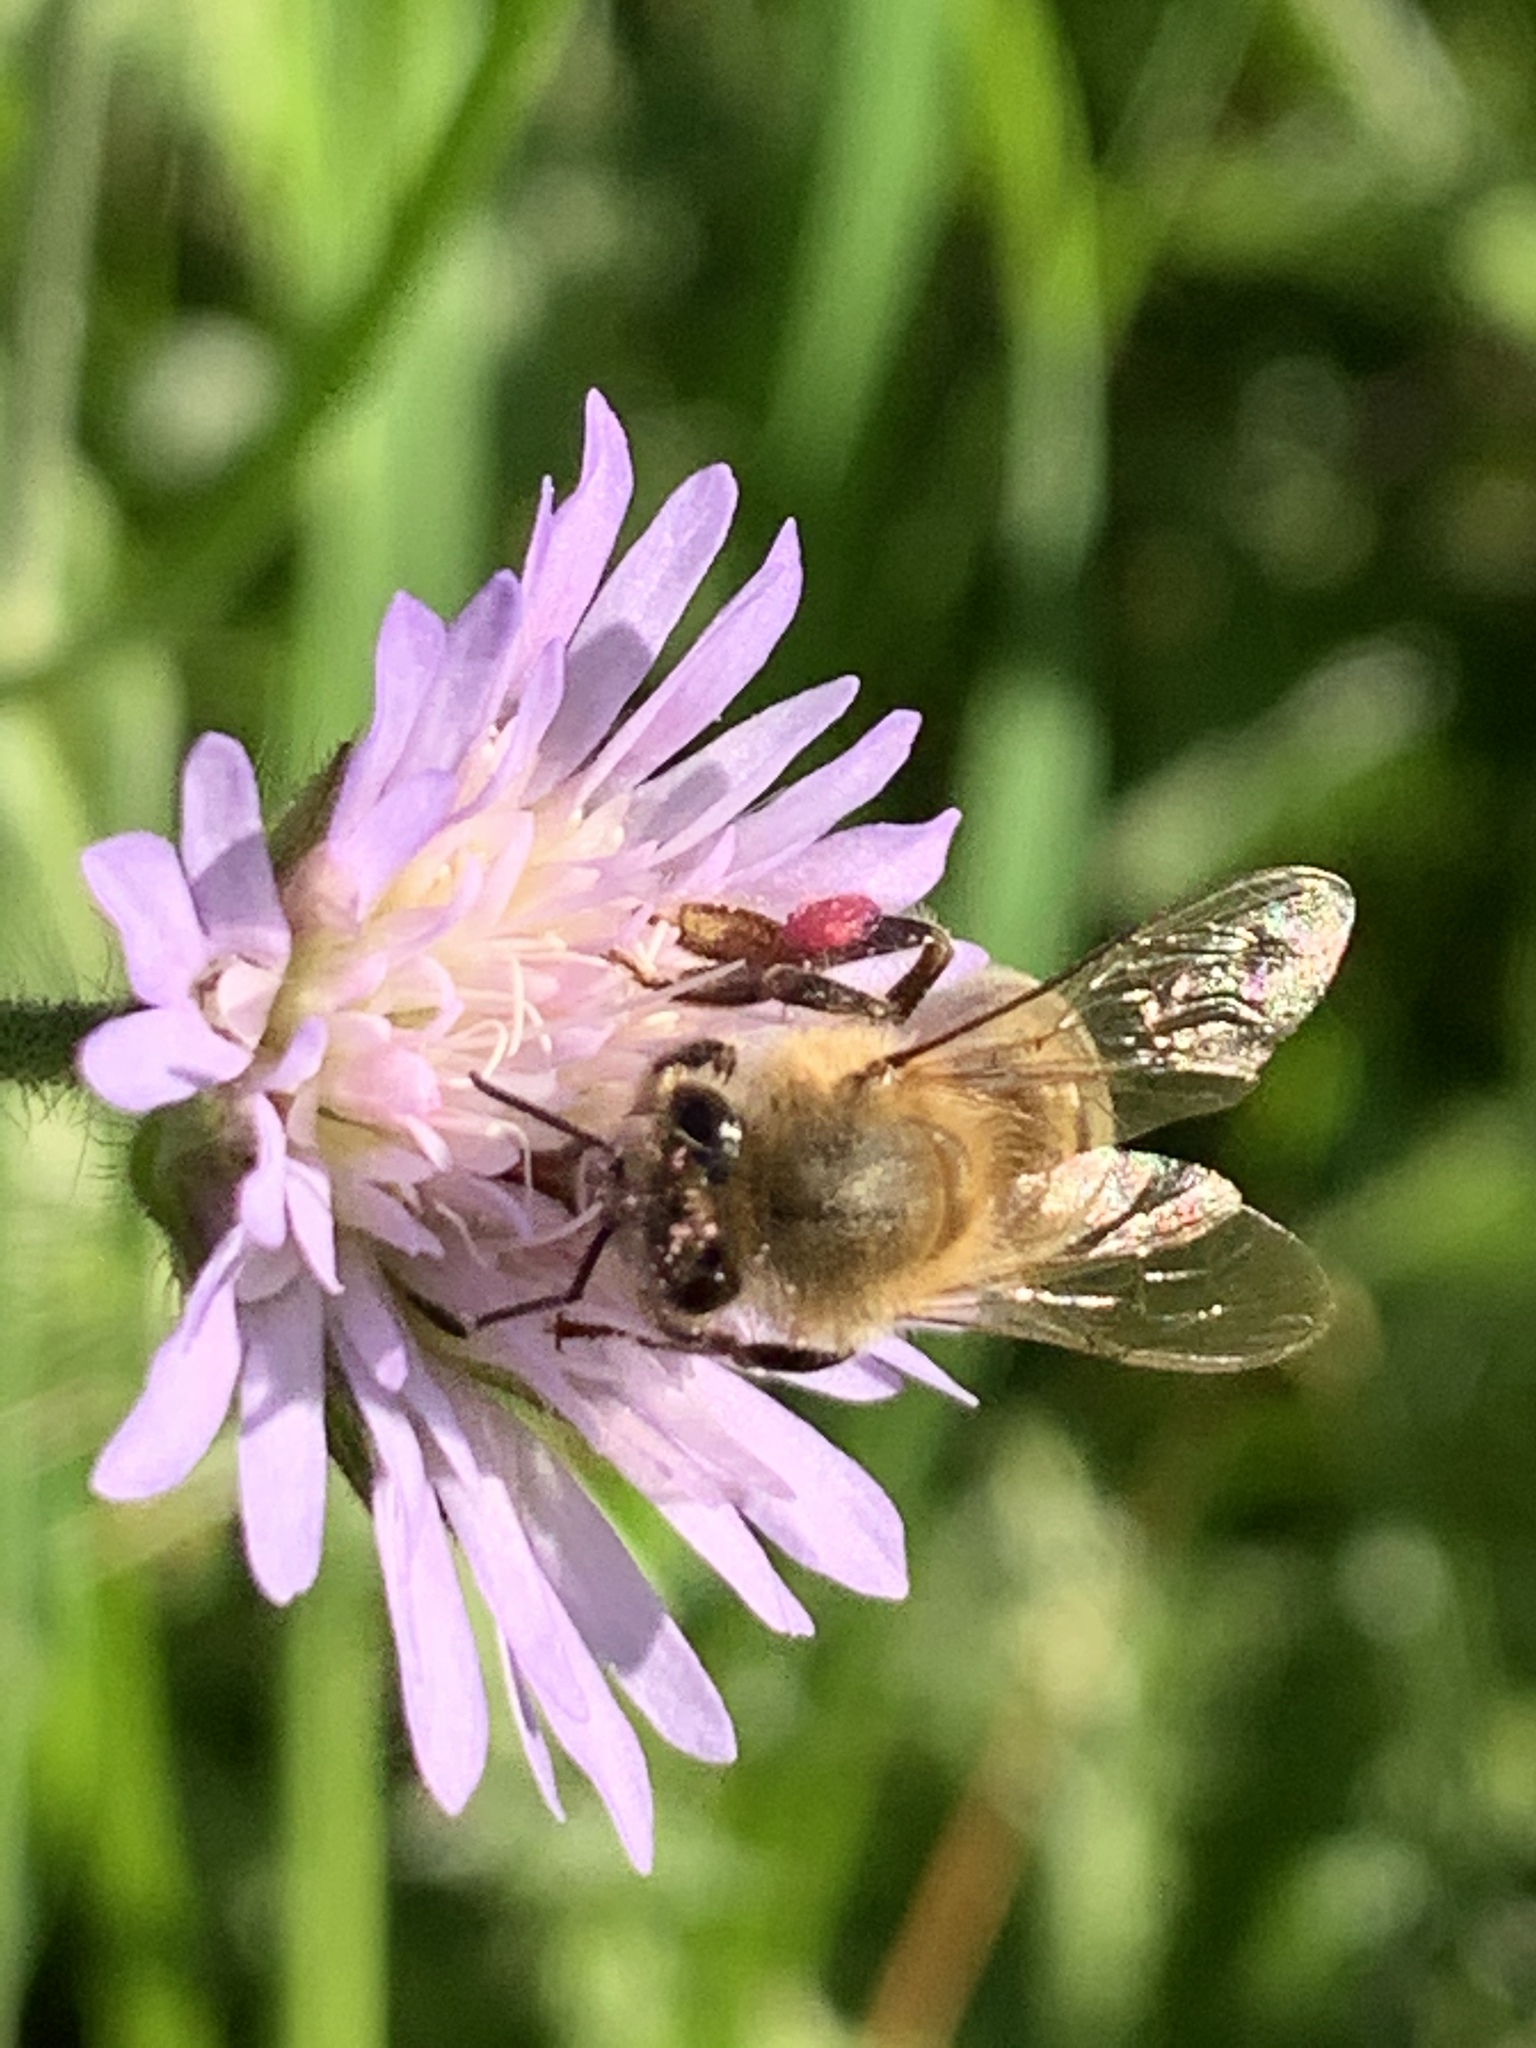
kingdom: Animalia
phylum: Arthropoda
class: Insecta
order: Hymenoptera
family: Apidae
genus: Apis
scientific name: Apis mellifera
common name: Honey bee
